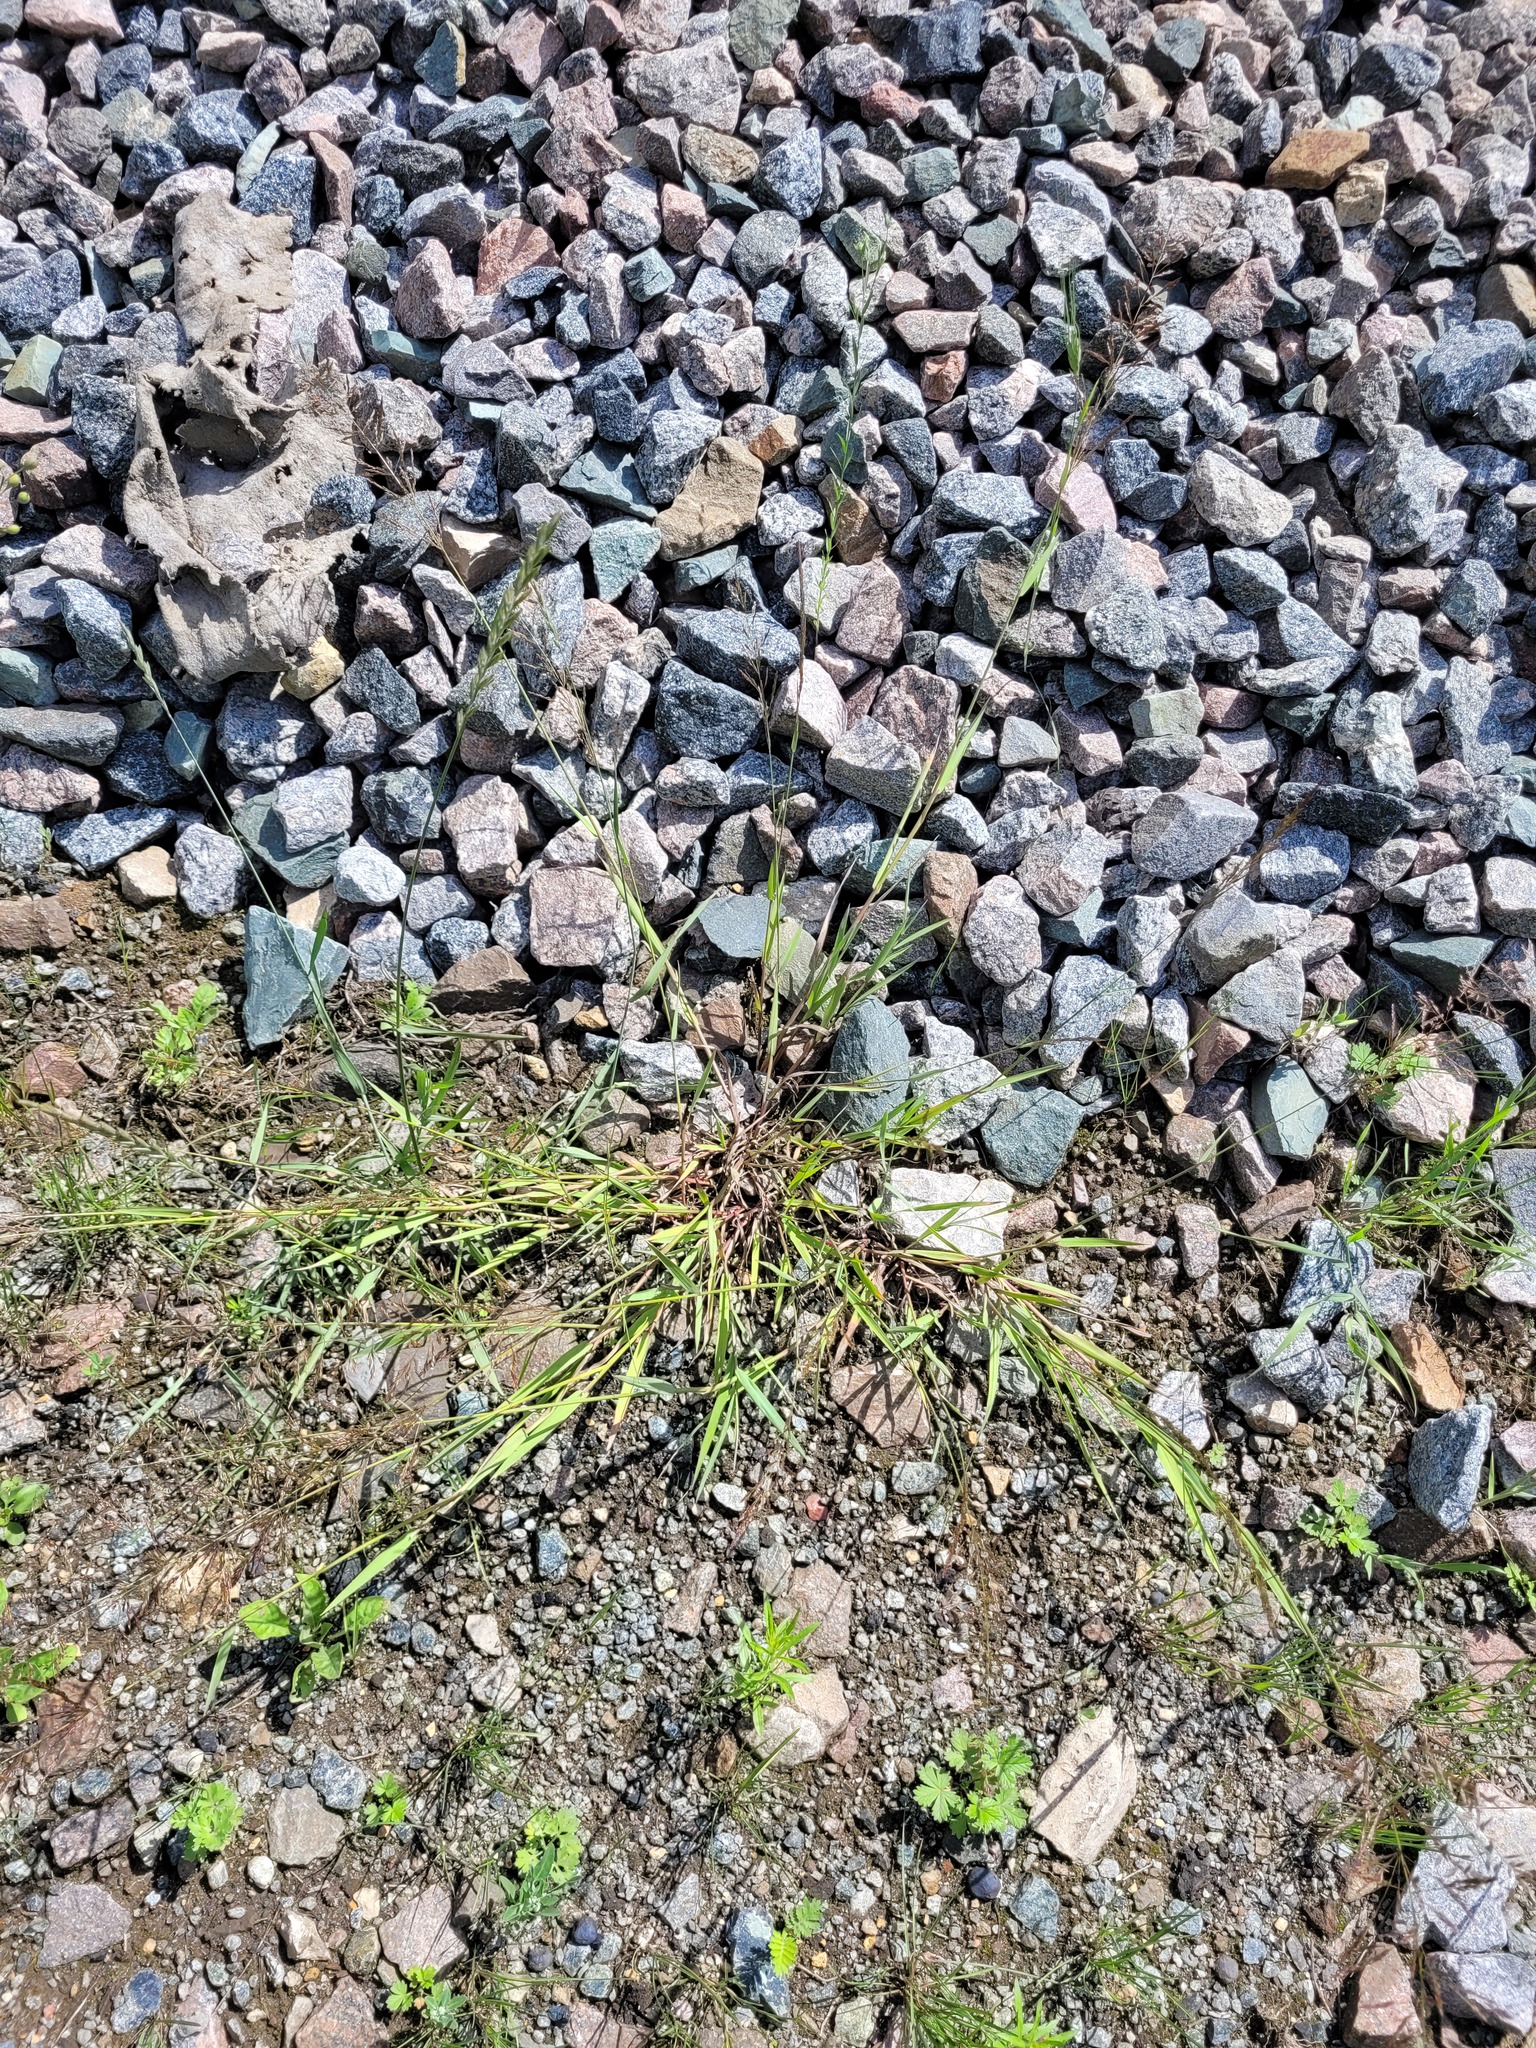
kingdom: Plantae
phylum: Tracheophyta
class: Liliopsida
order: Poales
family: Poaceae
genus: Agrostis
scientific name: Agrostis gigantea
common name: Black bent
